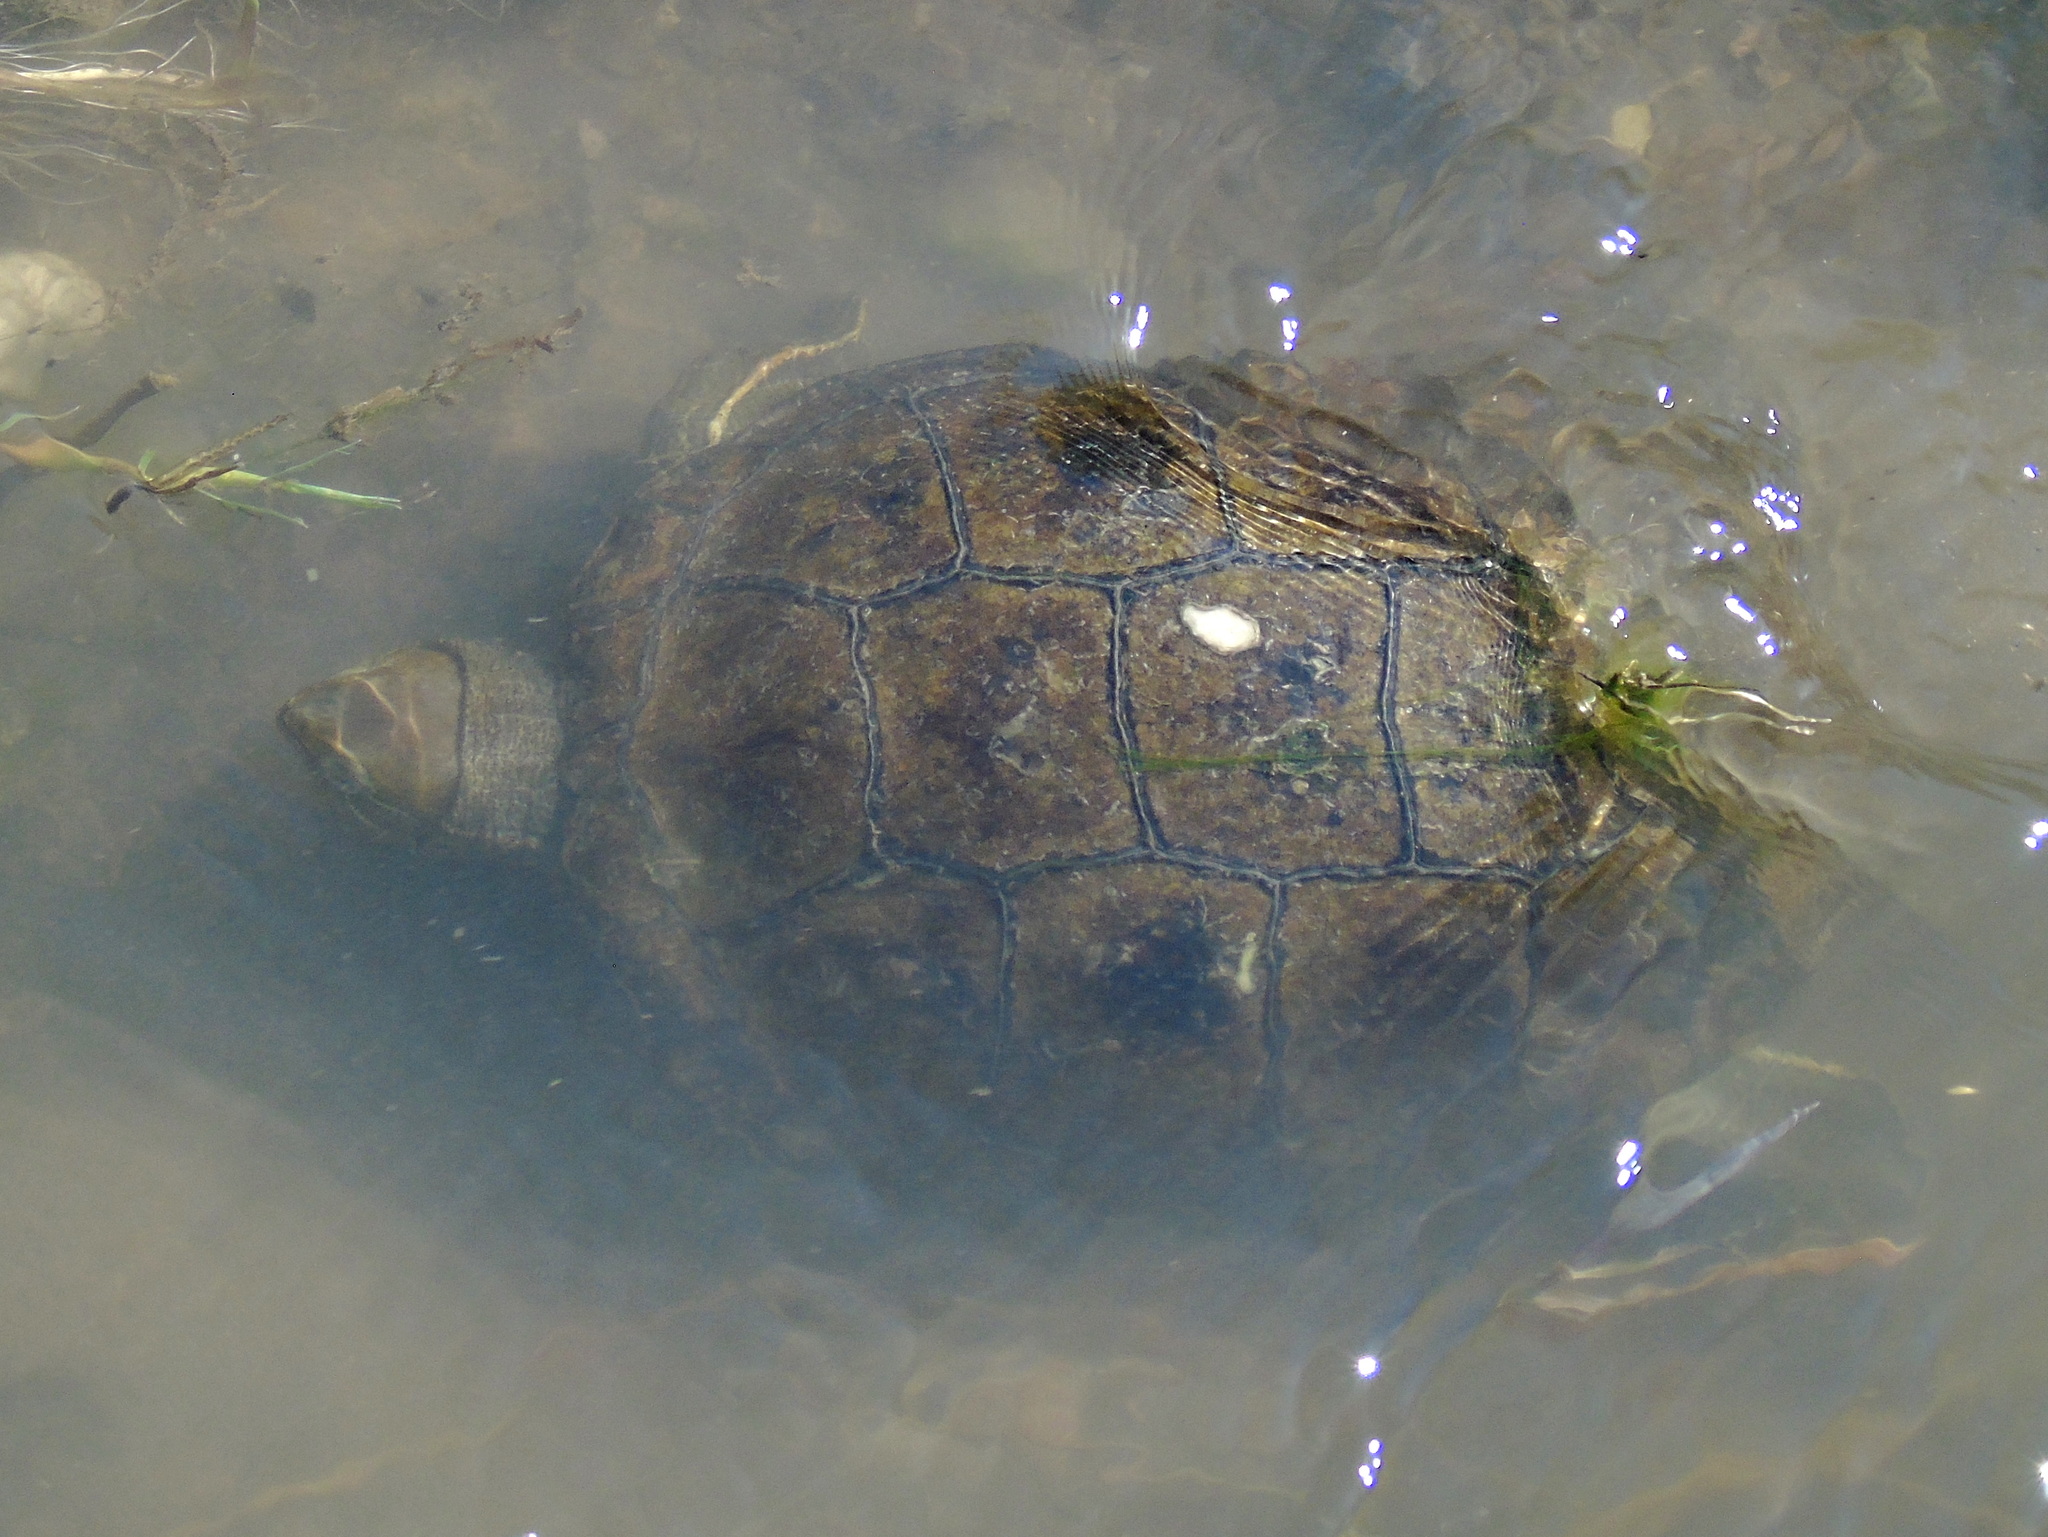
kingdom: Animalia
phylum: Chordata
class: Testudines
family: Geoemydidae
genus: Mauremys
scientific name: Mauremys caspica
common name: Caspian turtle
